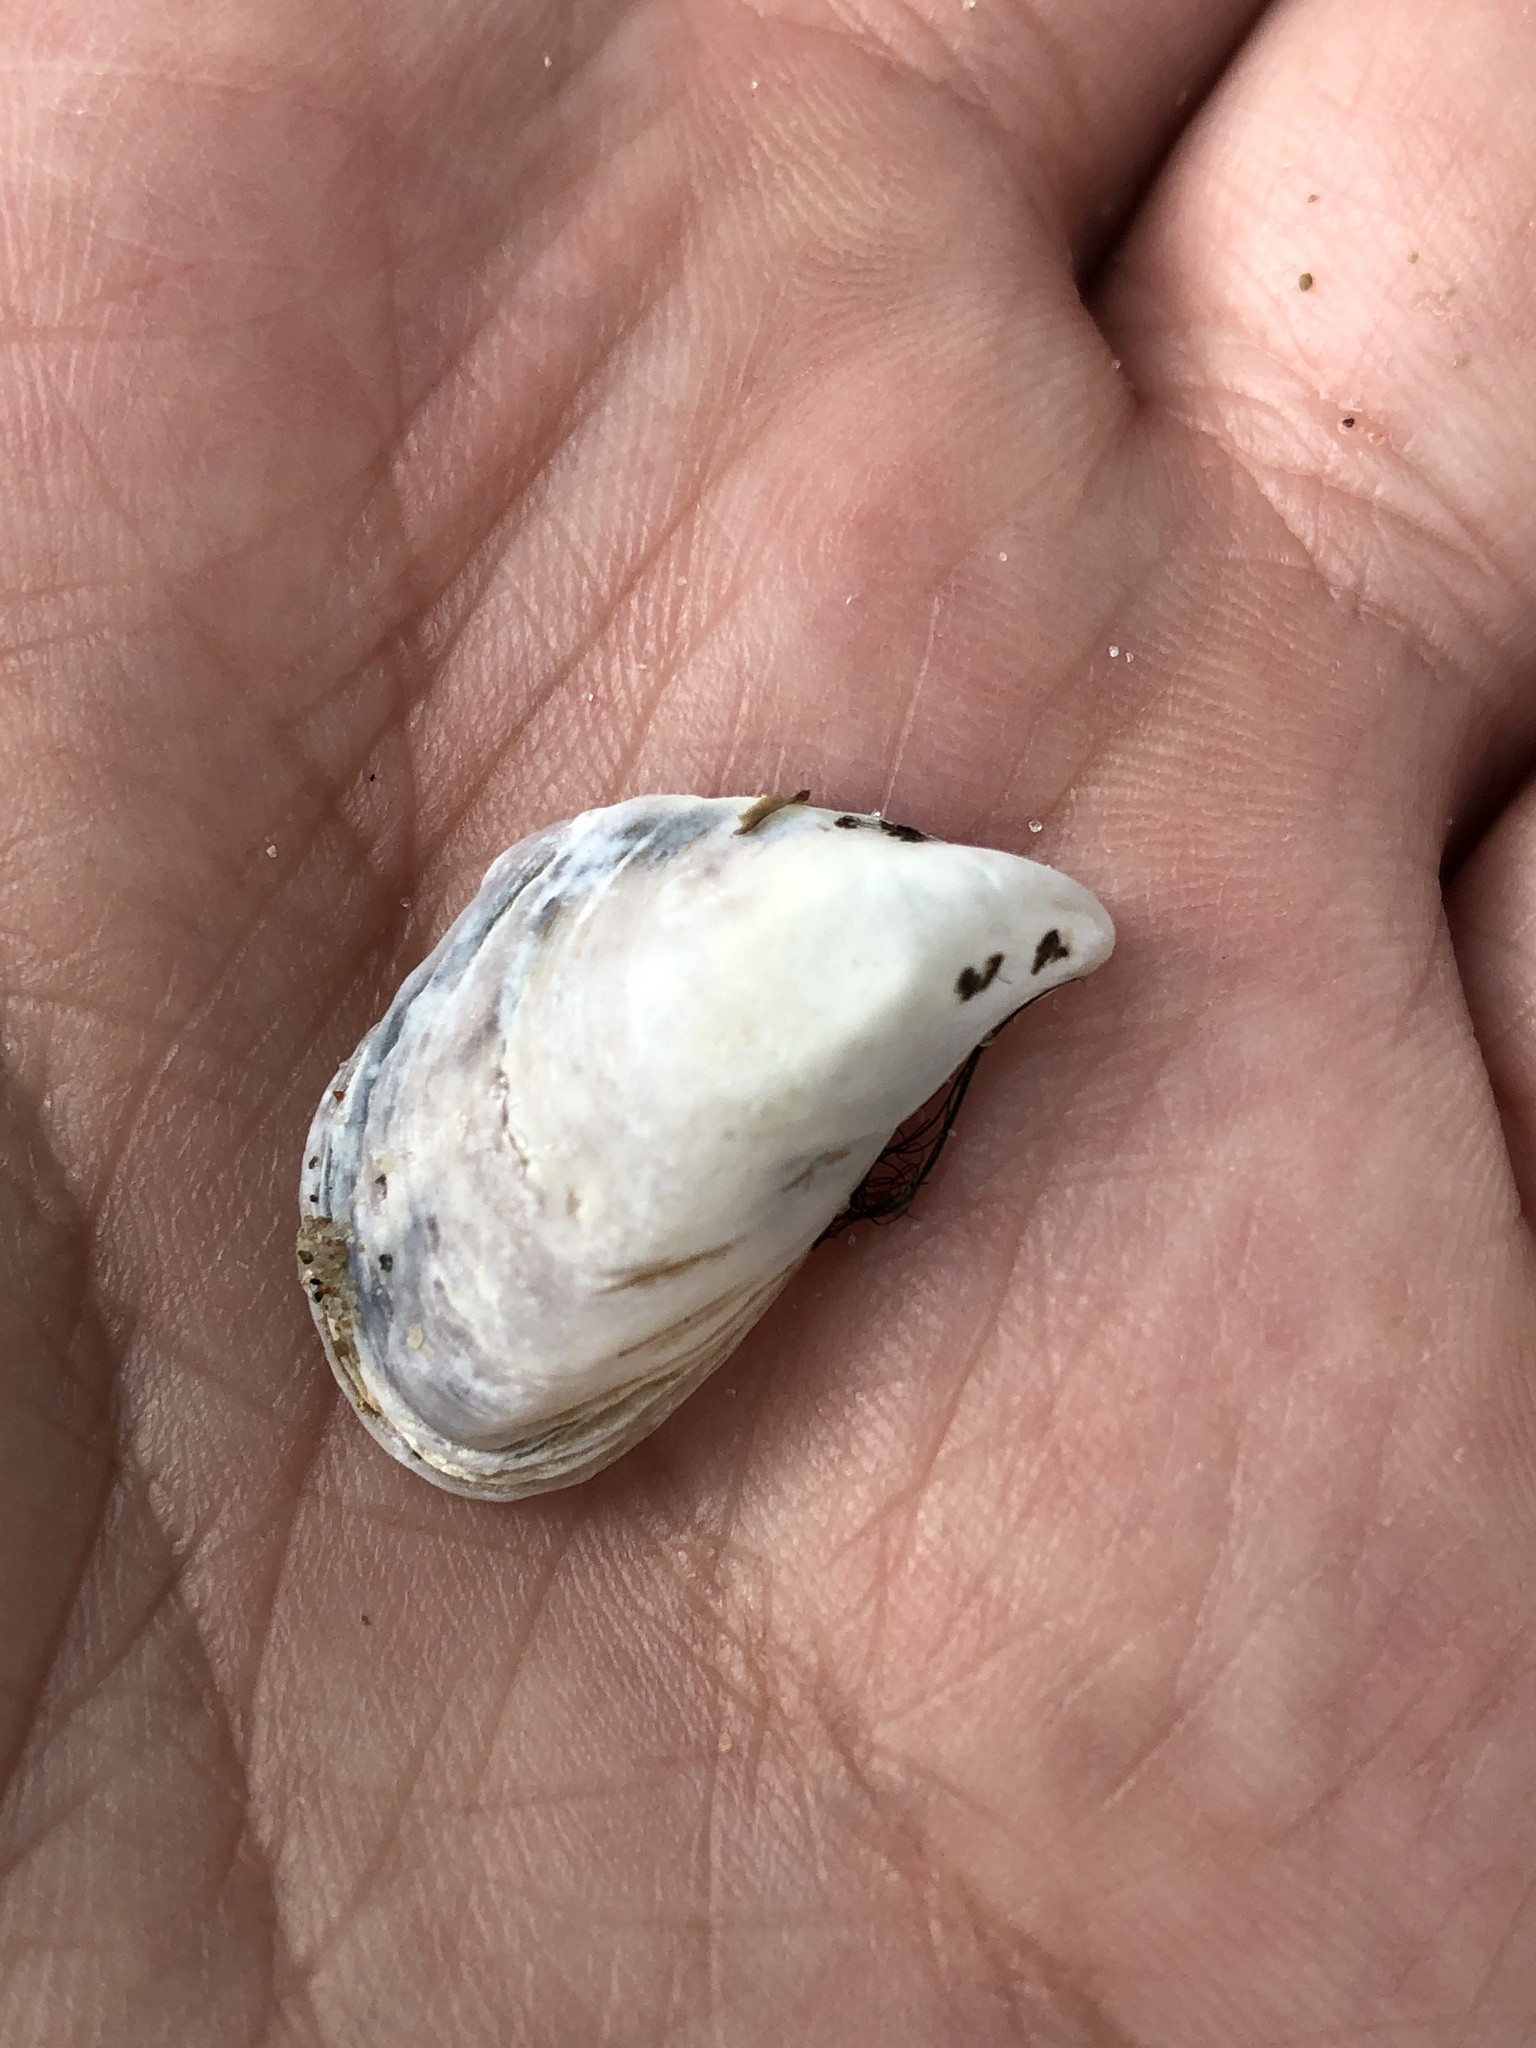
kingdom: Animalia
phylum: Mollusca
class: Bivalvia
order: Myida
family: Dreissenidae
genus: Dreissena
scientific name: Dreissena bugensis
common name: Quagga mussel
